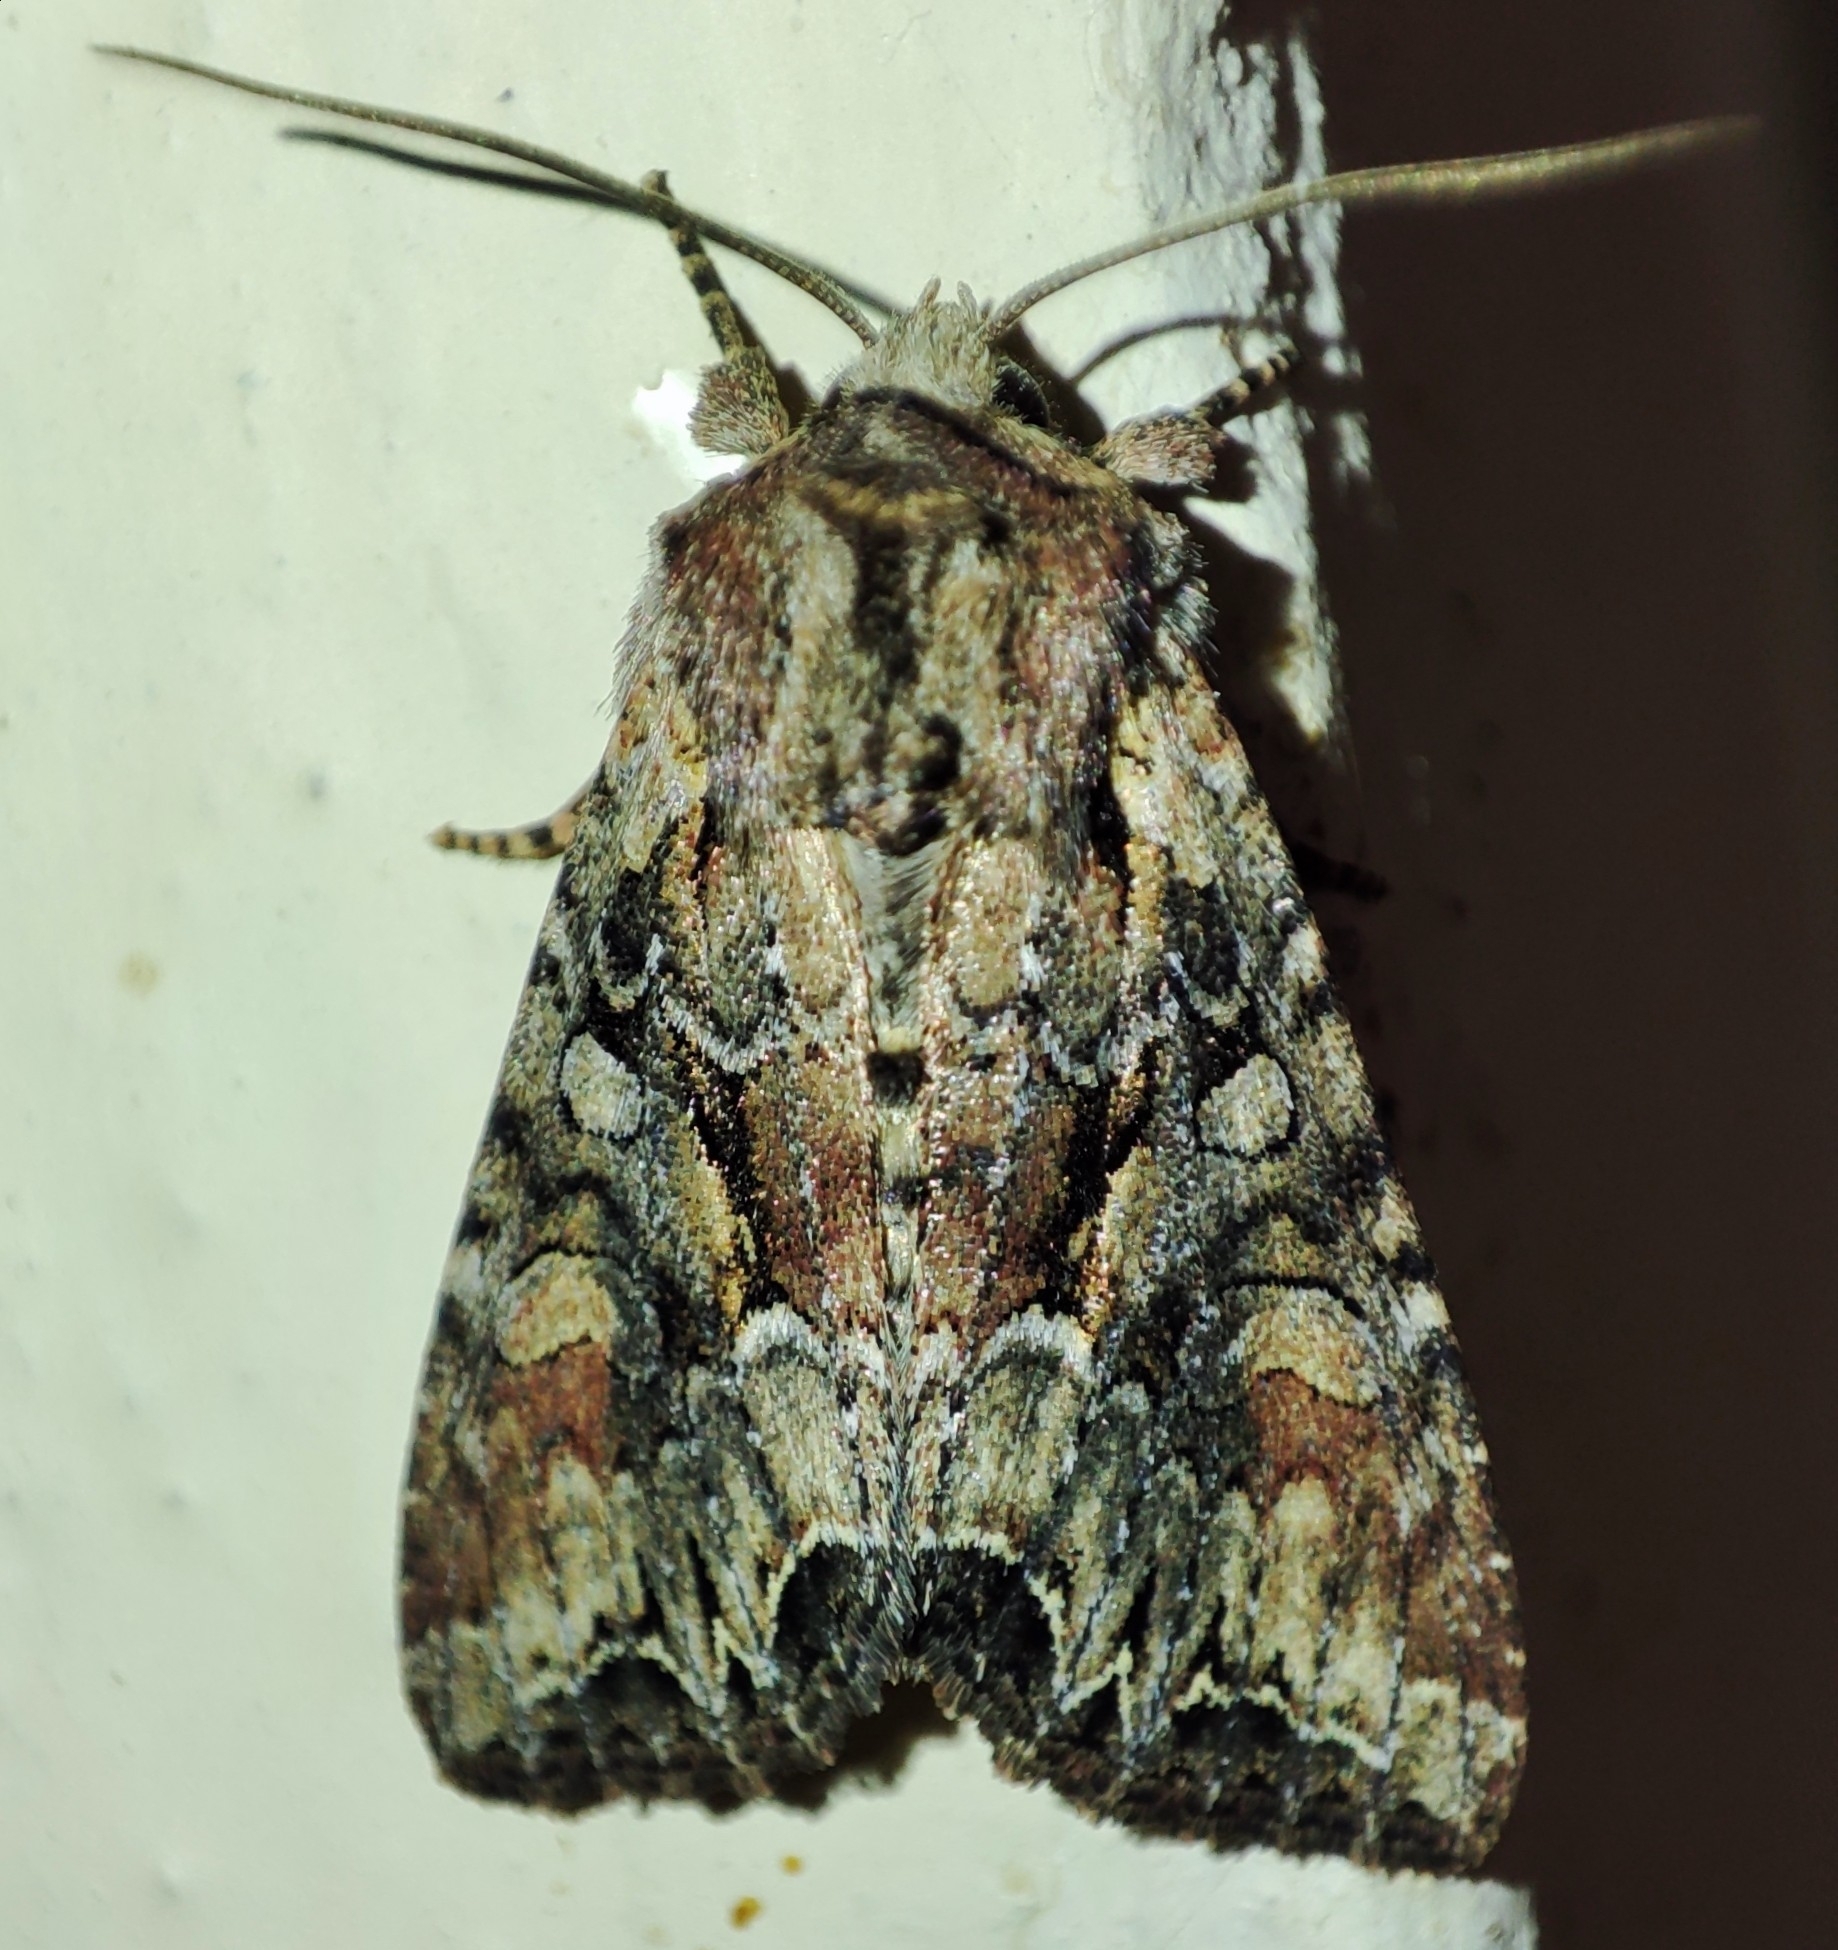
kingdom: Animalia
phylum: Arthropoda
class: Insecta
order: Lepidoptera
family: Noctuidae
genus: Lacanobia
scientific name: Lacanobia thalassina
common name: Pale-shouldered brocade
